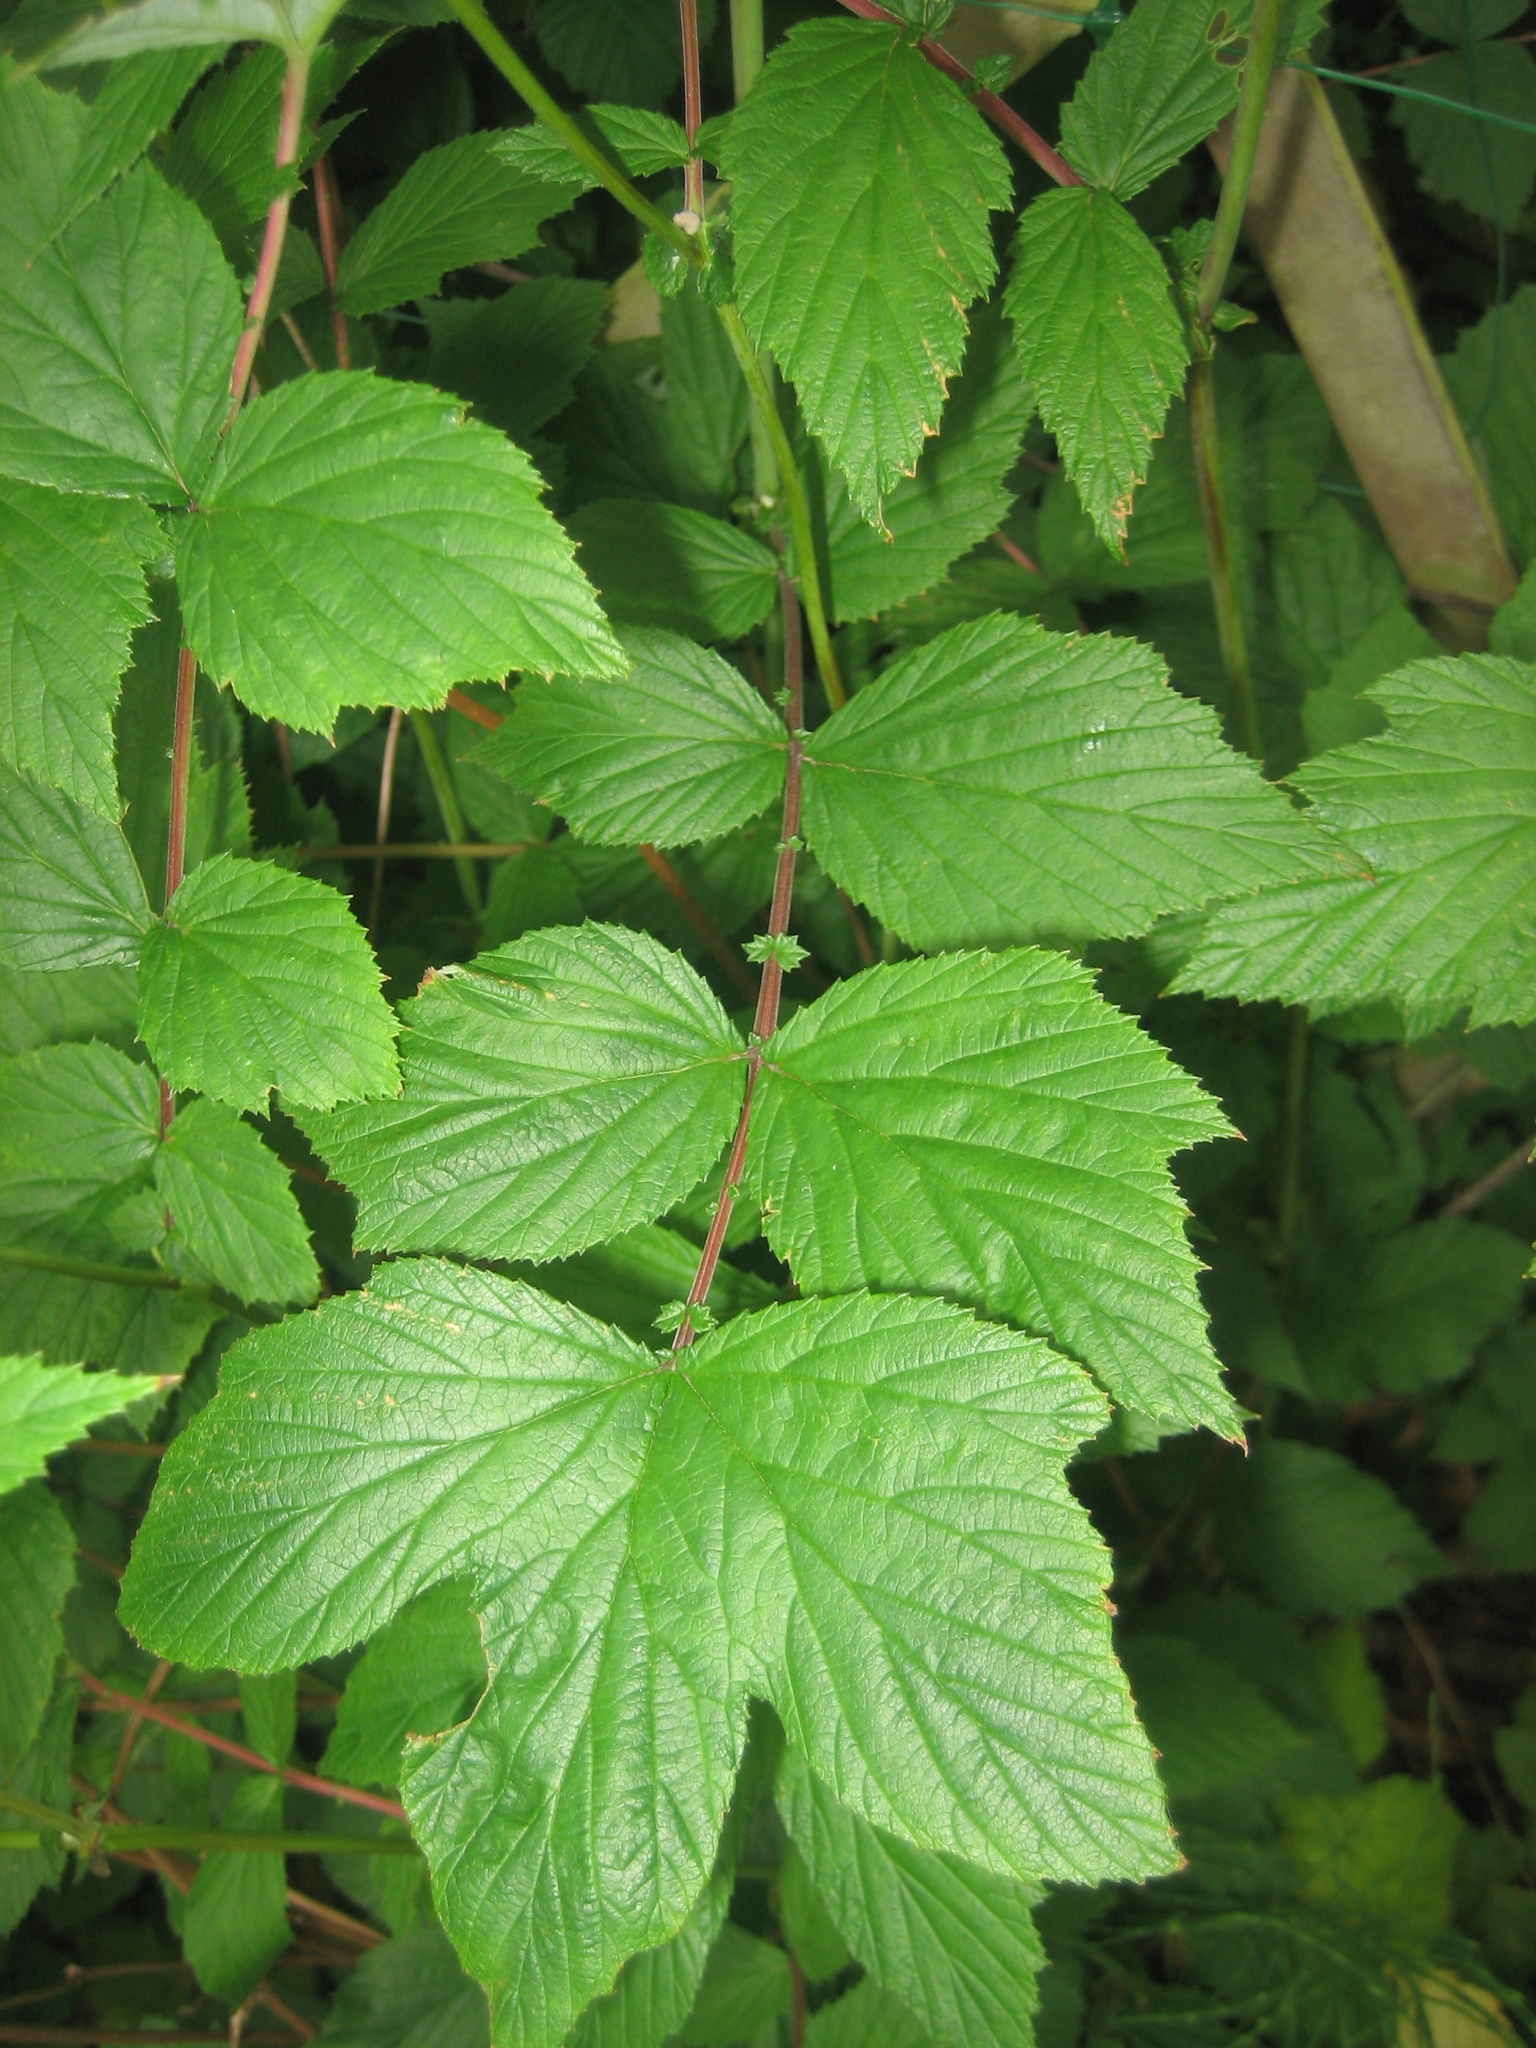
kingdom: Plantae
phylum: Tracheophyta
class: Magnoliopsida
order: Rosales
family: Rosaceae
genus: Filipendula
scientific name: Filipendula ulmaria
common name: Meadowsweet
